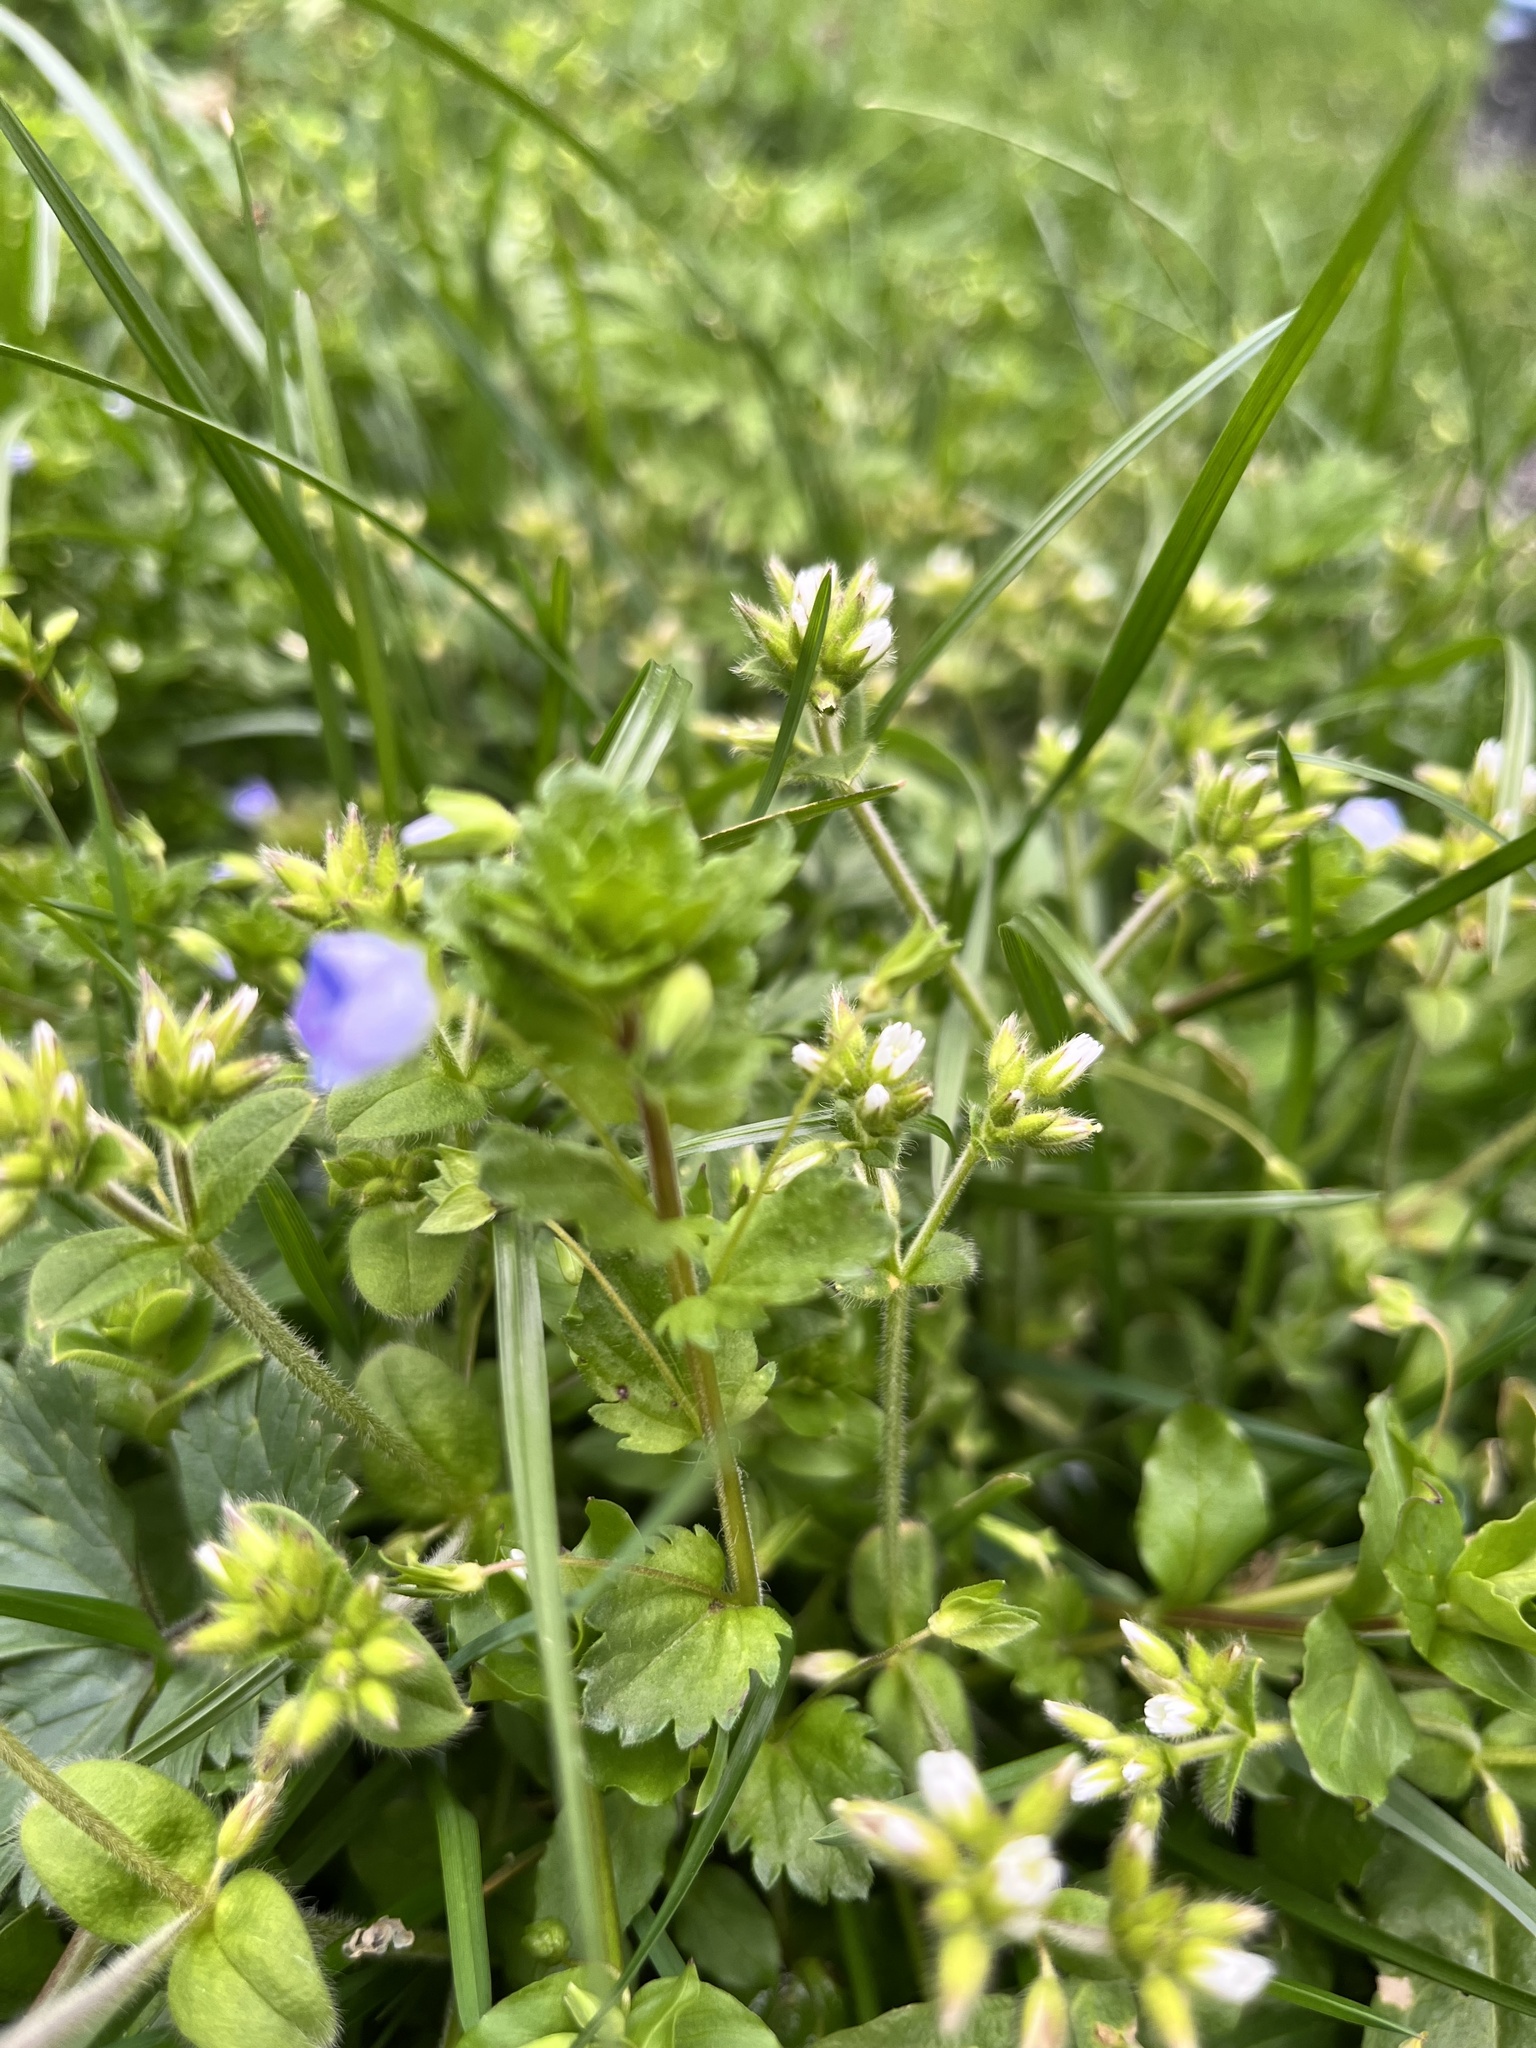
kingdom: Plantae
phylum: Tracheophyta
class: Magnoliopsida
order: Lamiales
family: Plantaginaceae
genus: Veronica
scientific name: Veronica persica
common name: Common field-speedwell
